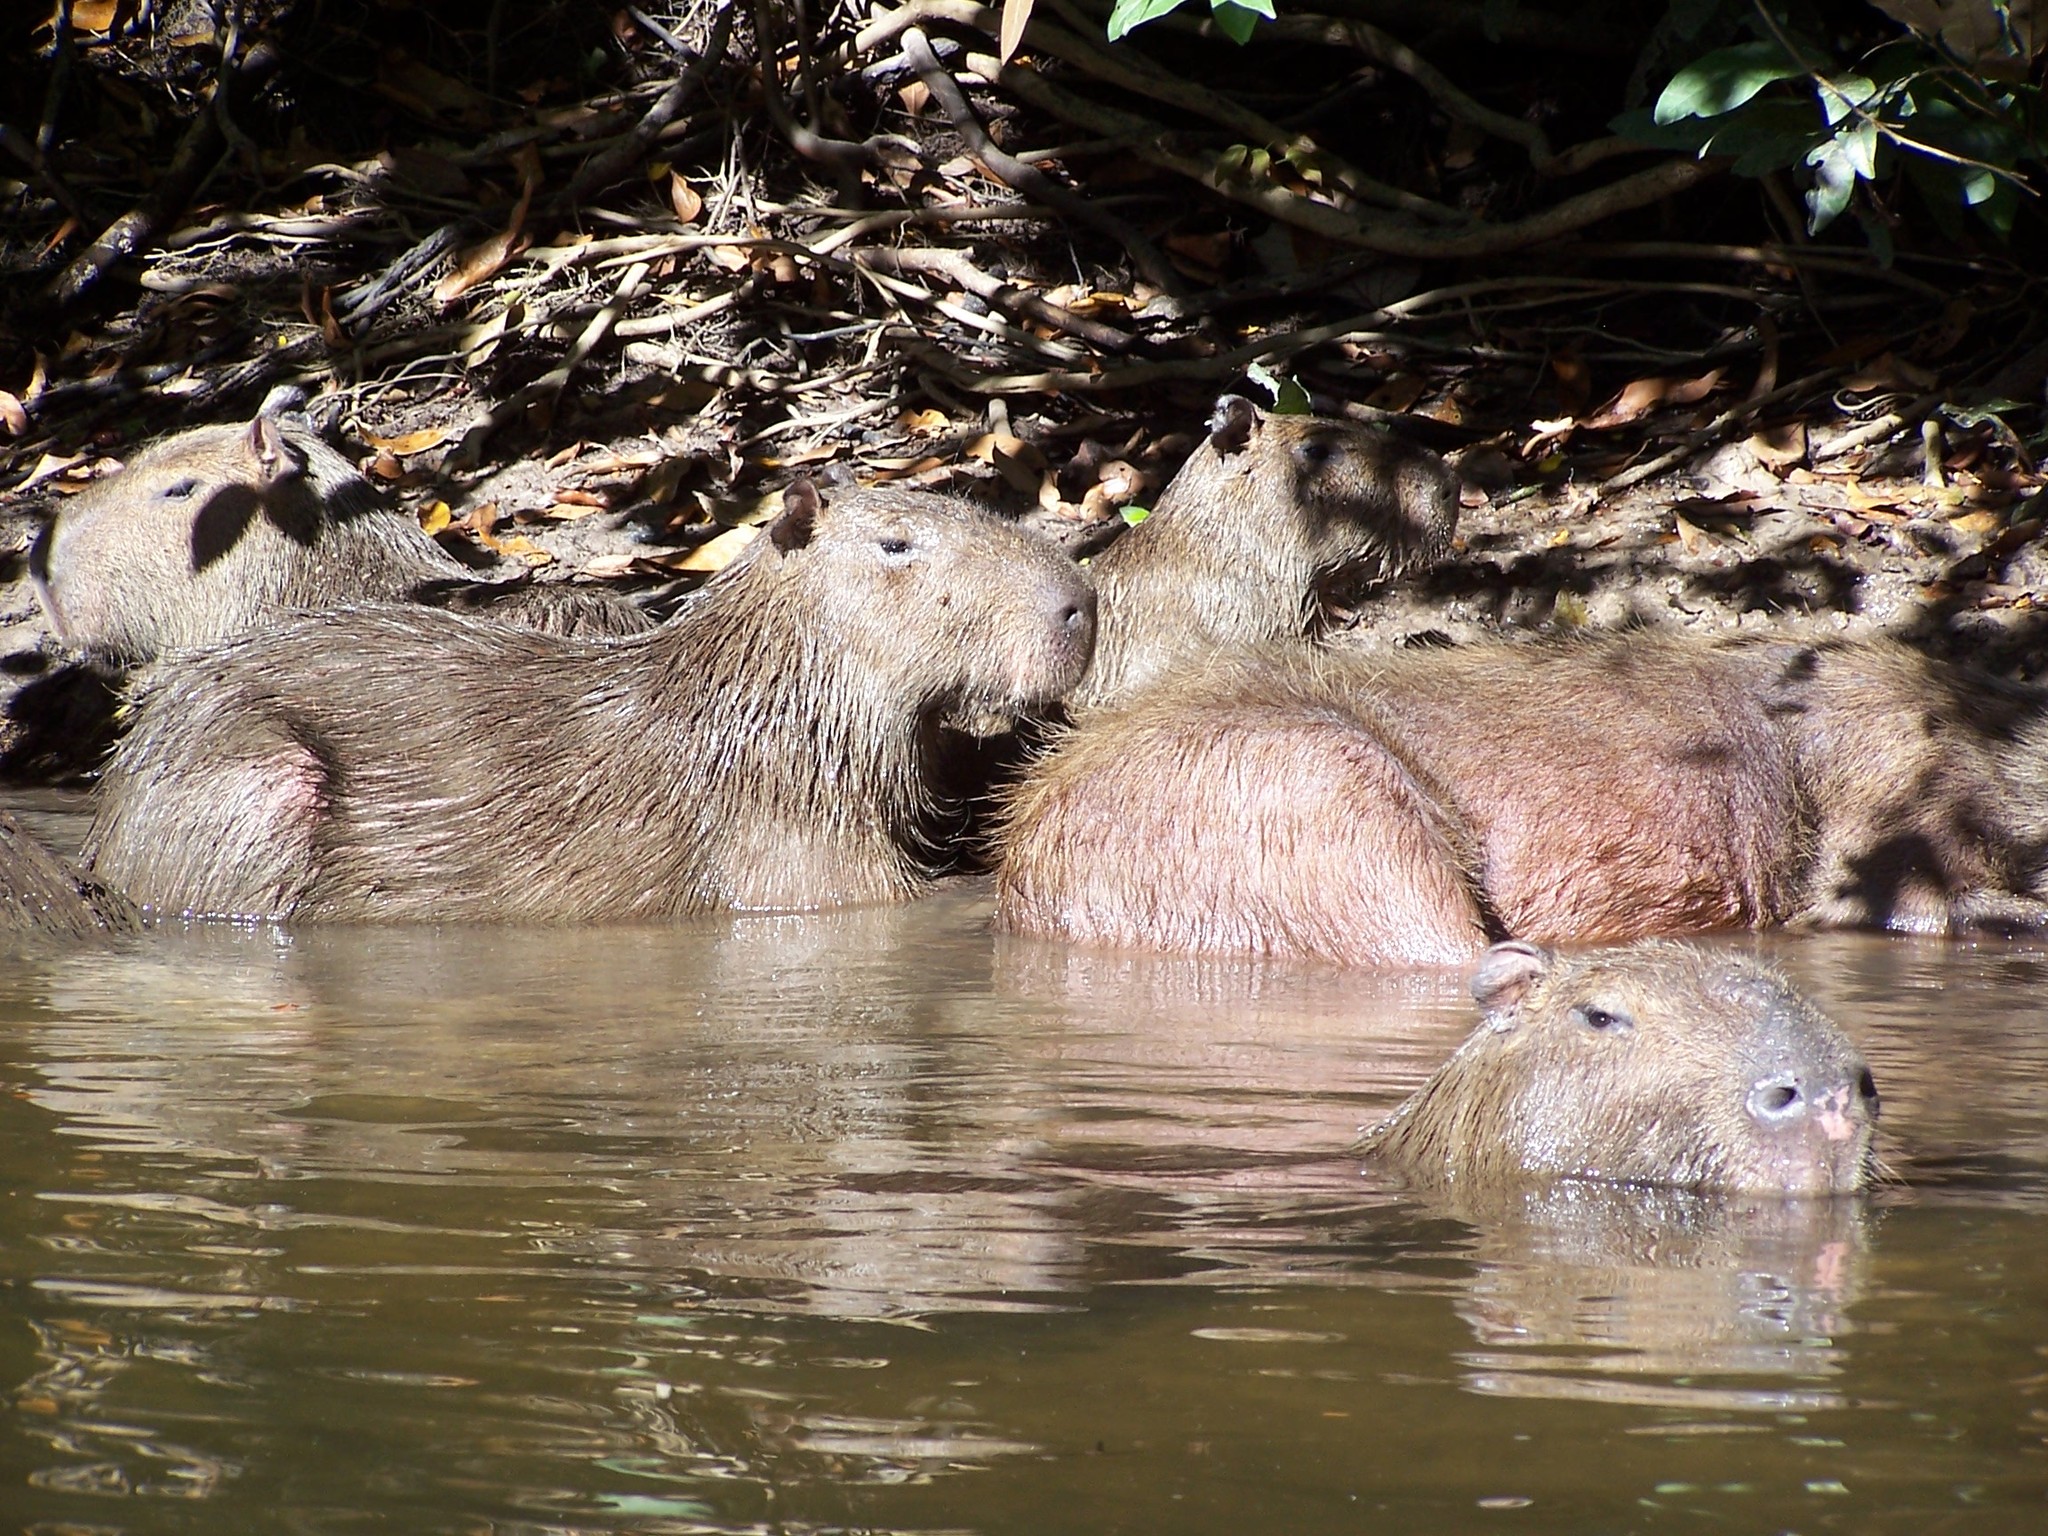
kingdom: Animalia
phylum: Chordata
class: Mammalia
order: Rodentia
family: Caviidae
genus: Hydrochoerus
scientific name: Hydrochoerus hydrochaeris
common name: Capybara
